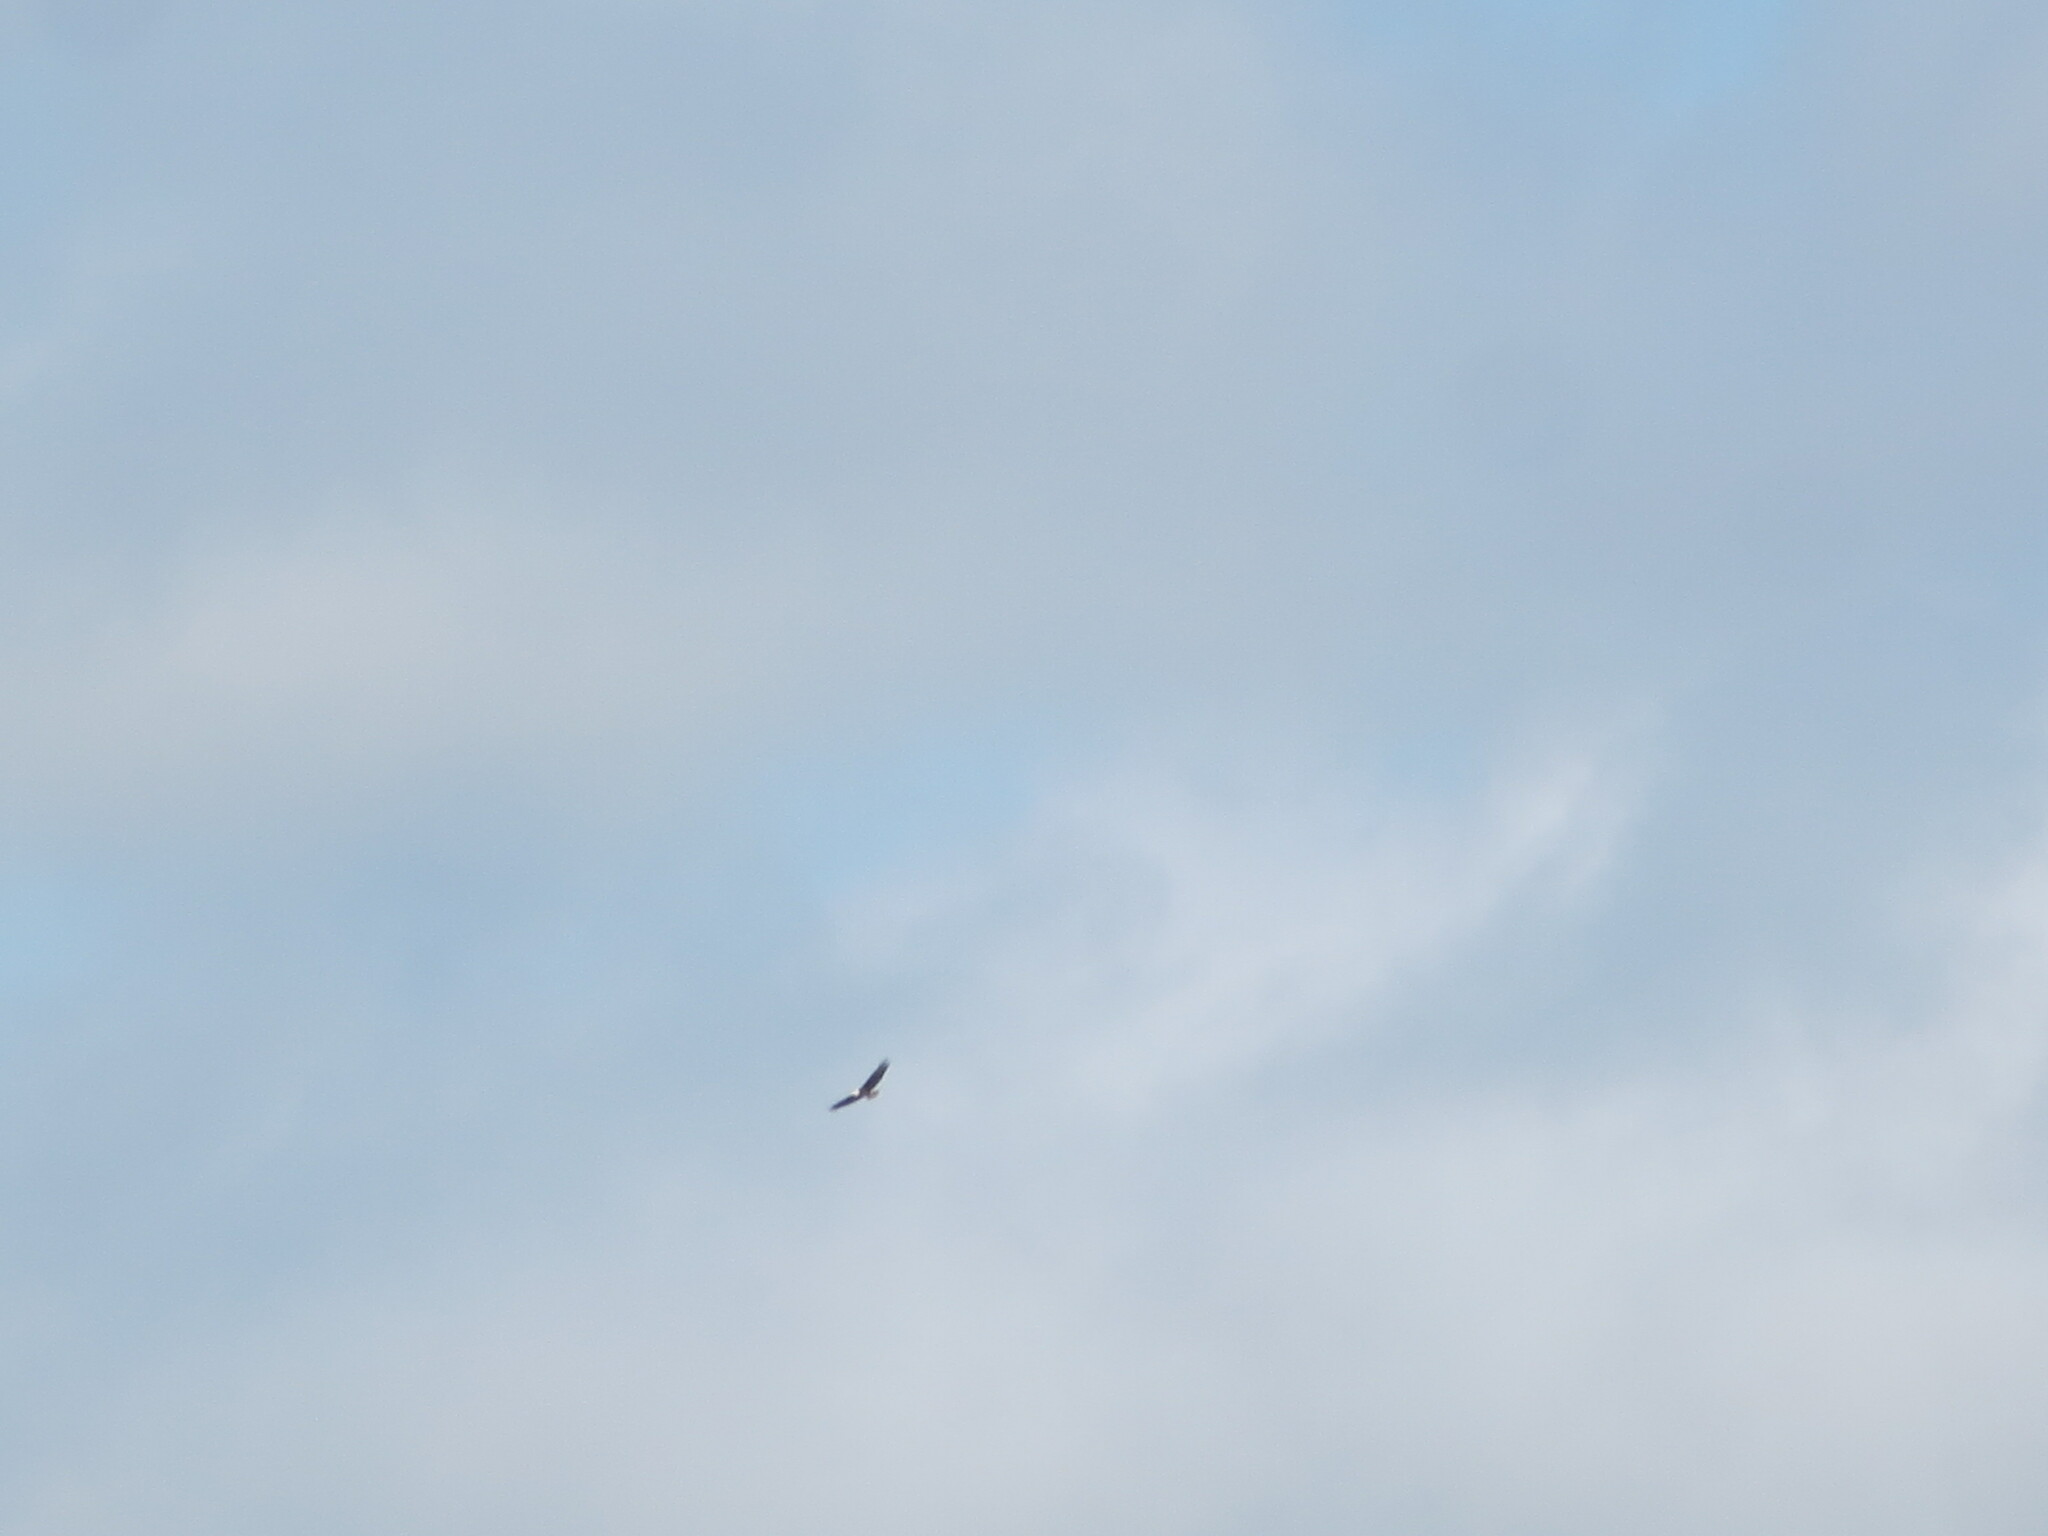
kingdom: Animalia
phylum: Chordata
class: Aves
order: Accipitriformes
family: Accipitridae
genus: Haliaeetus
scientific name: Haliaeetus leucocephalus
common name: Bald eagle
